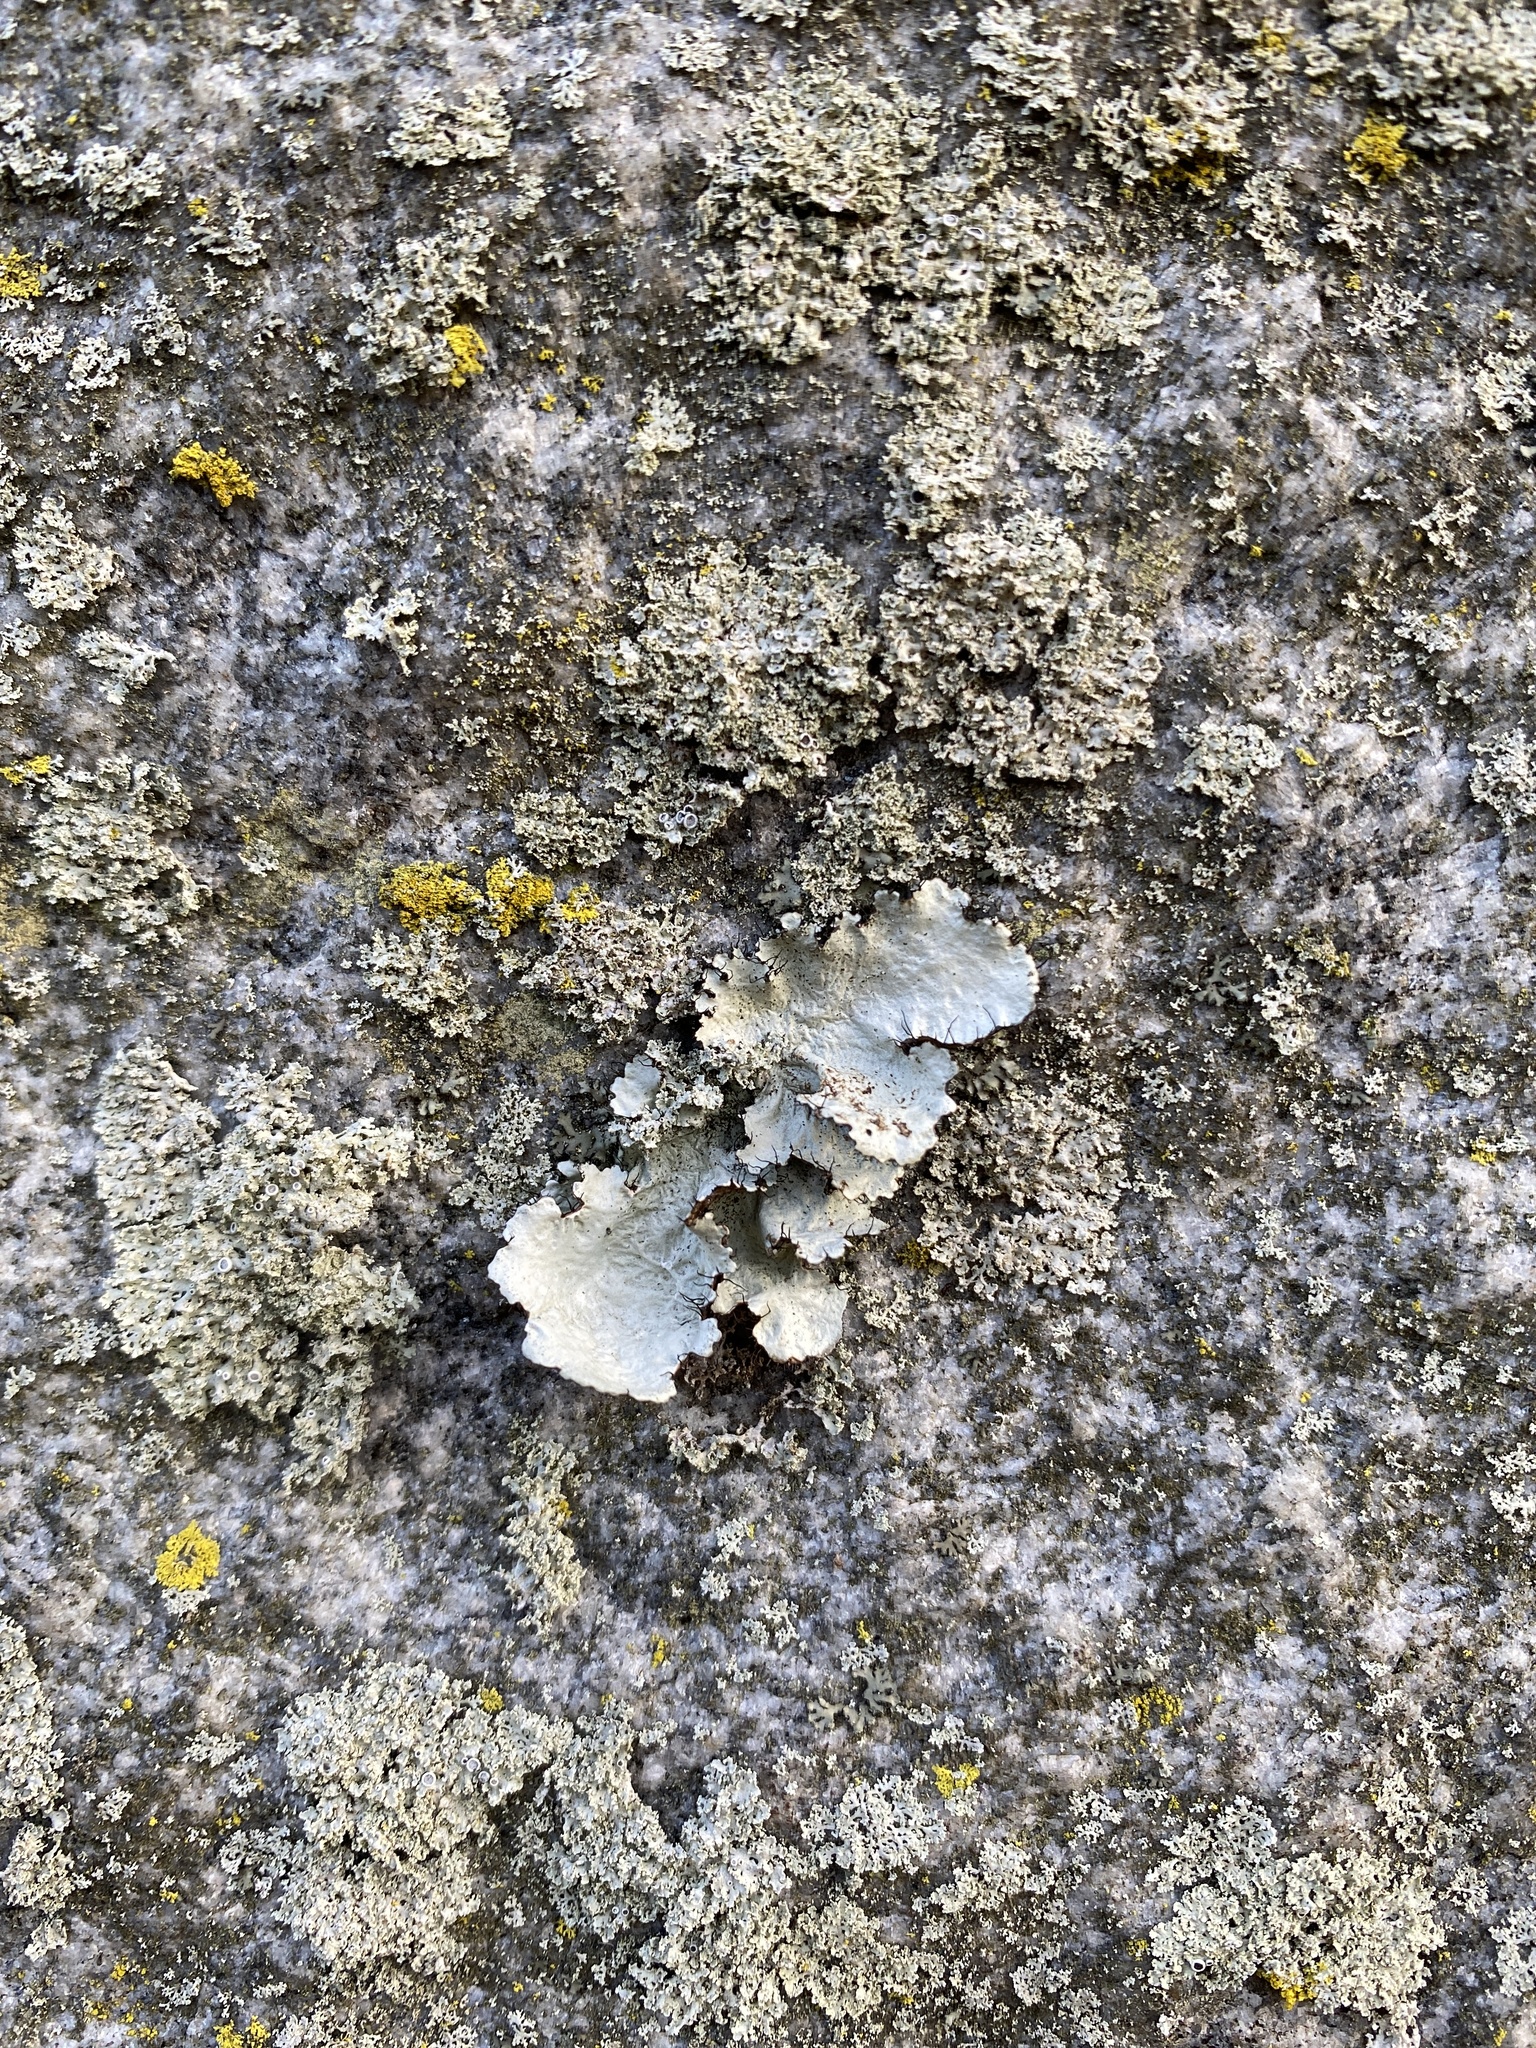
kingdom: Fungi
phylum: Ascomycota
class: Lecanoromycetes
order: Lecanorales
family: Parmeliaceae
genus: Parmotrema
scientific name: Parmotrema hypotropum
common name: Powdered ruffle lichen
